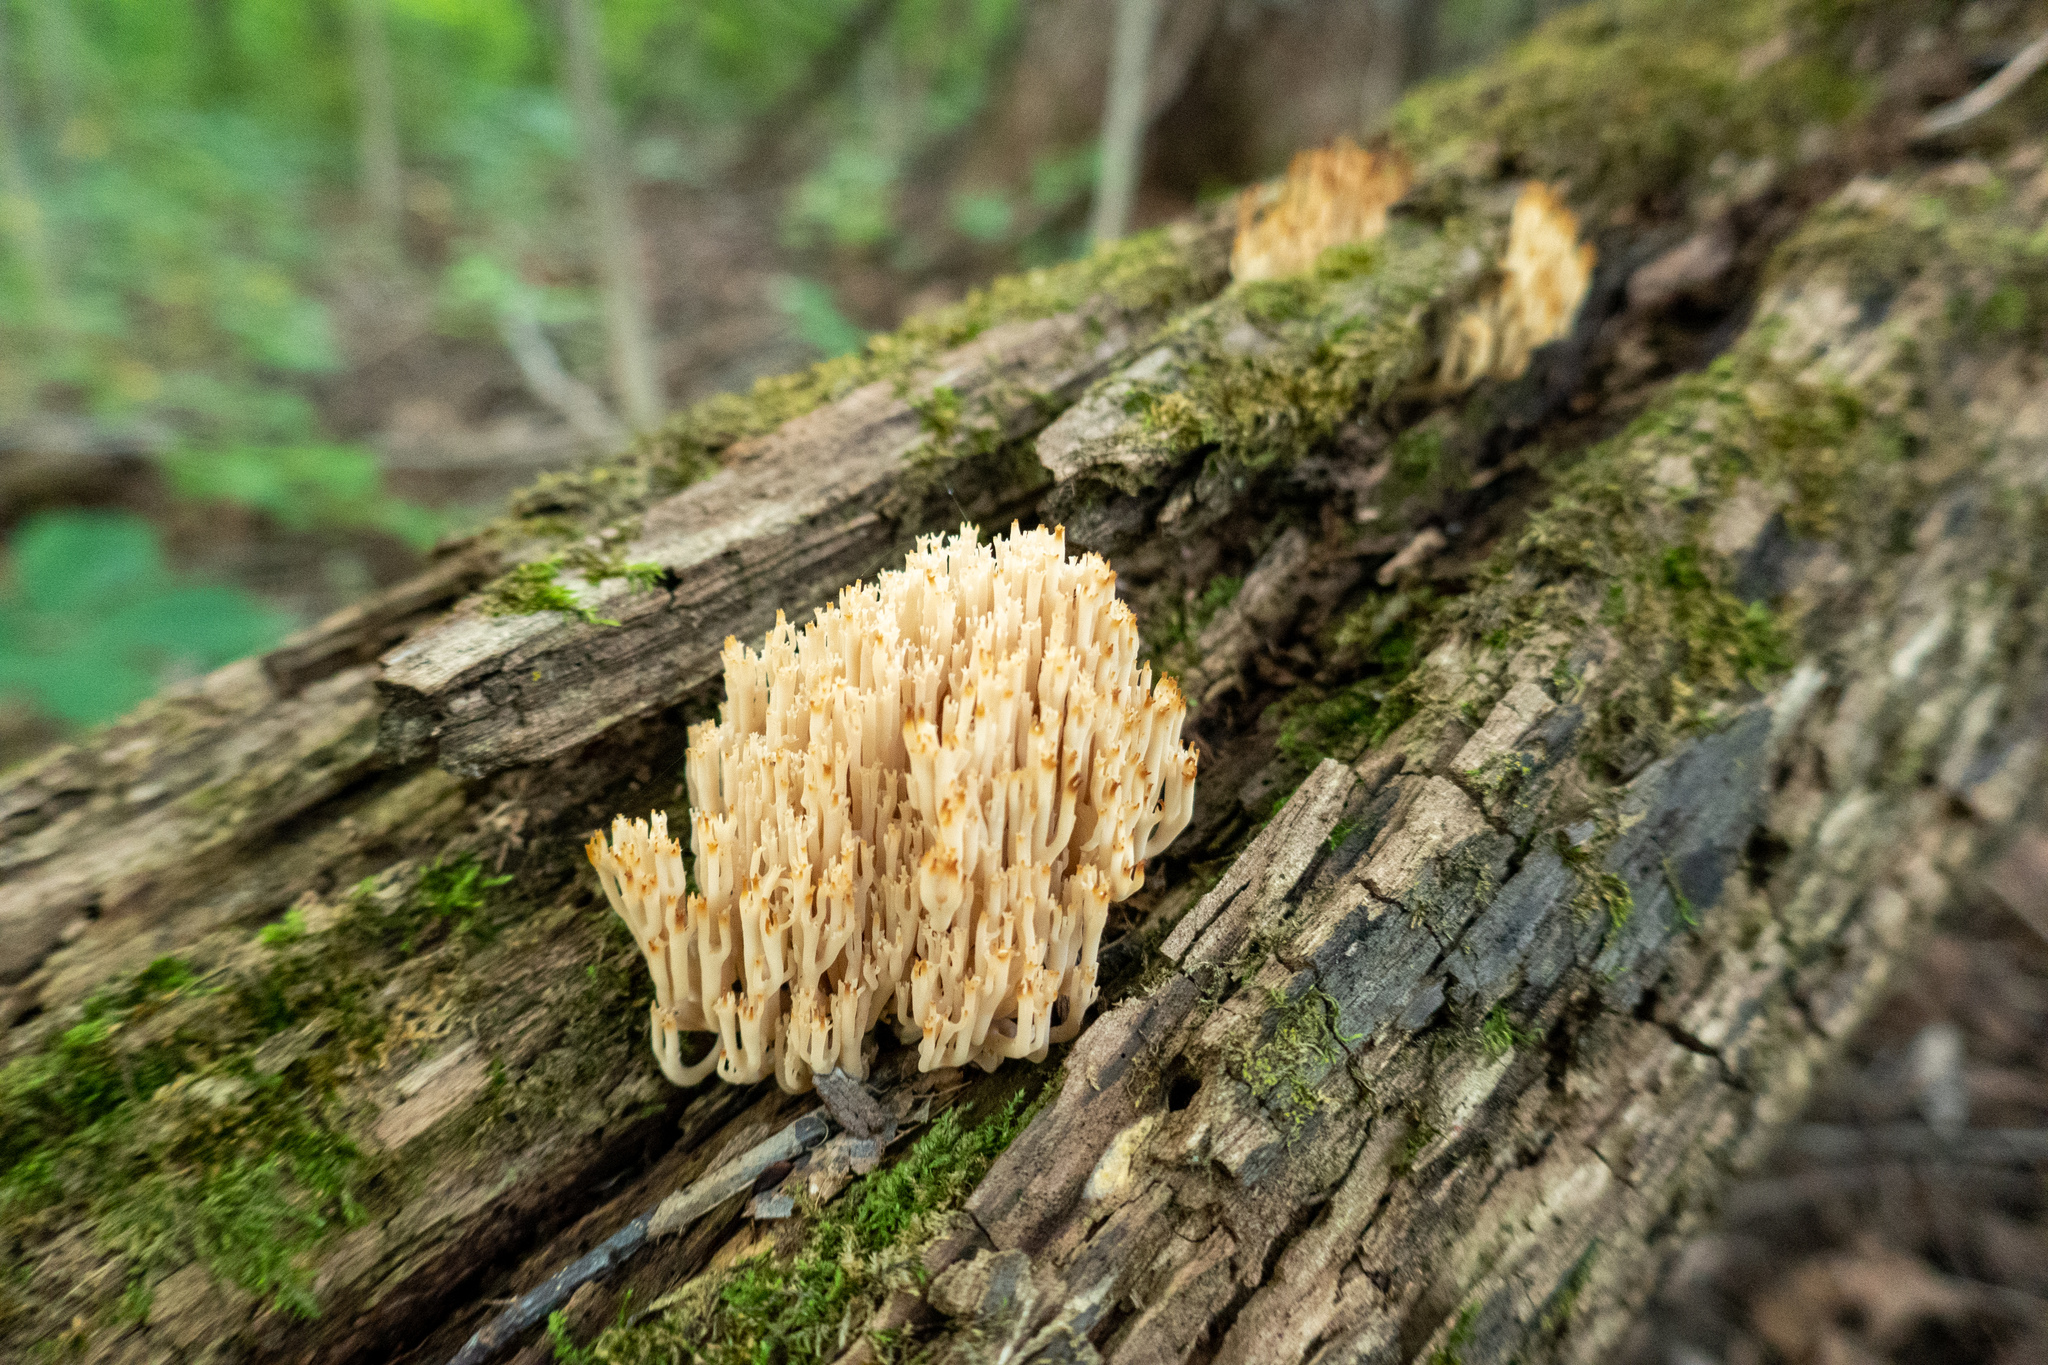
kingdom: Fungi
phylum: Basidiomycota
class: Agaricomycetes
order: Russulales
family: Auriscalpiaceae
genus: Artomyces
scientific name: Artomyces pyxidatus
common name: Crown-tipped coral fungus
